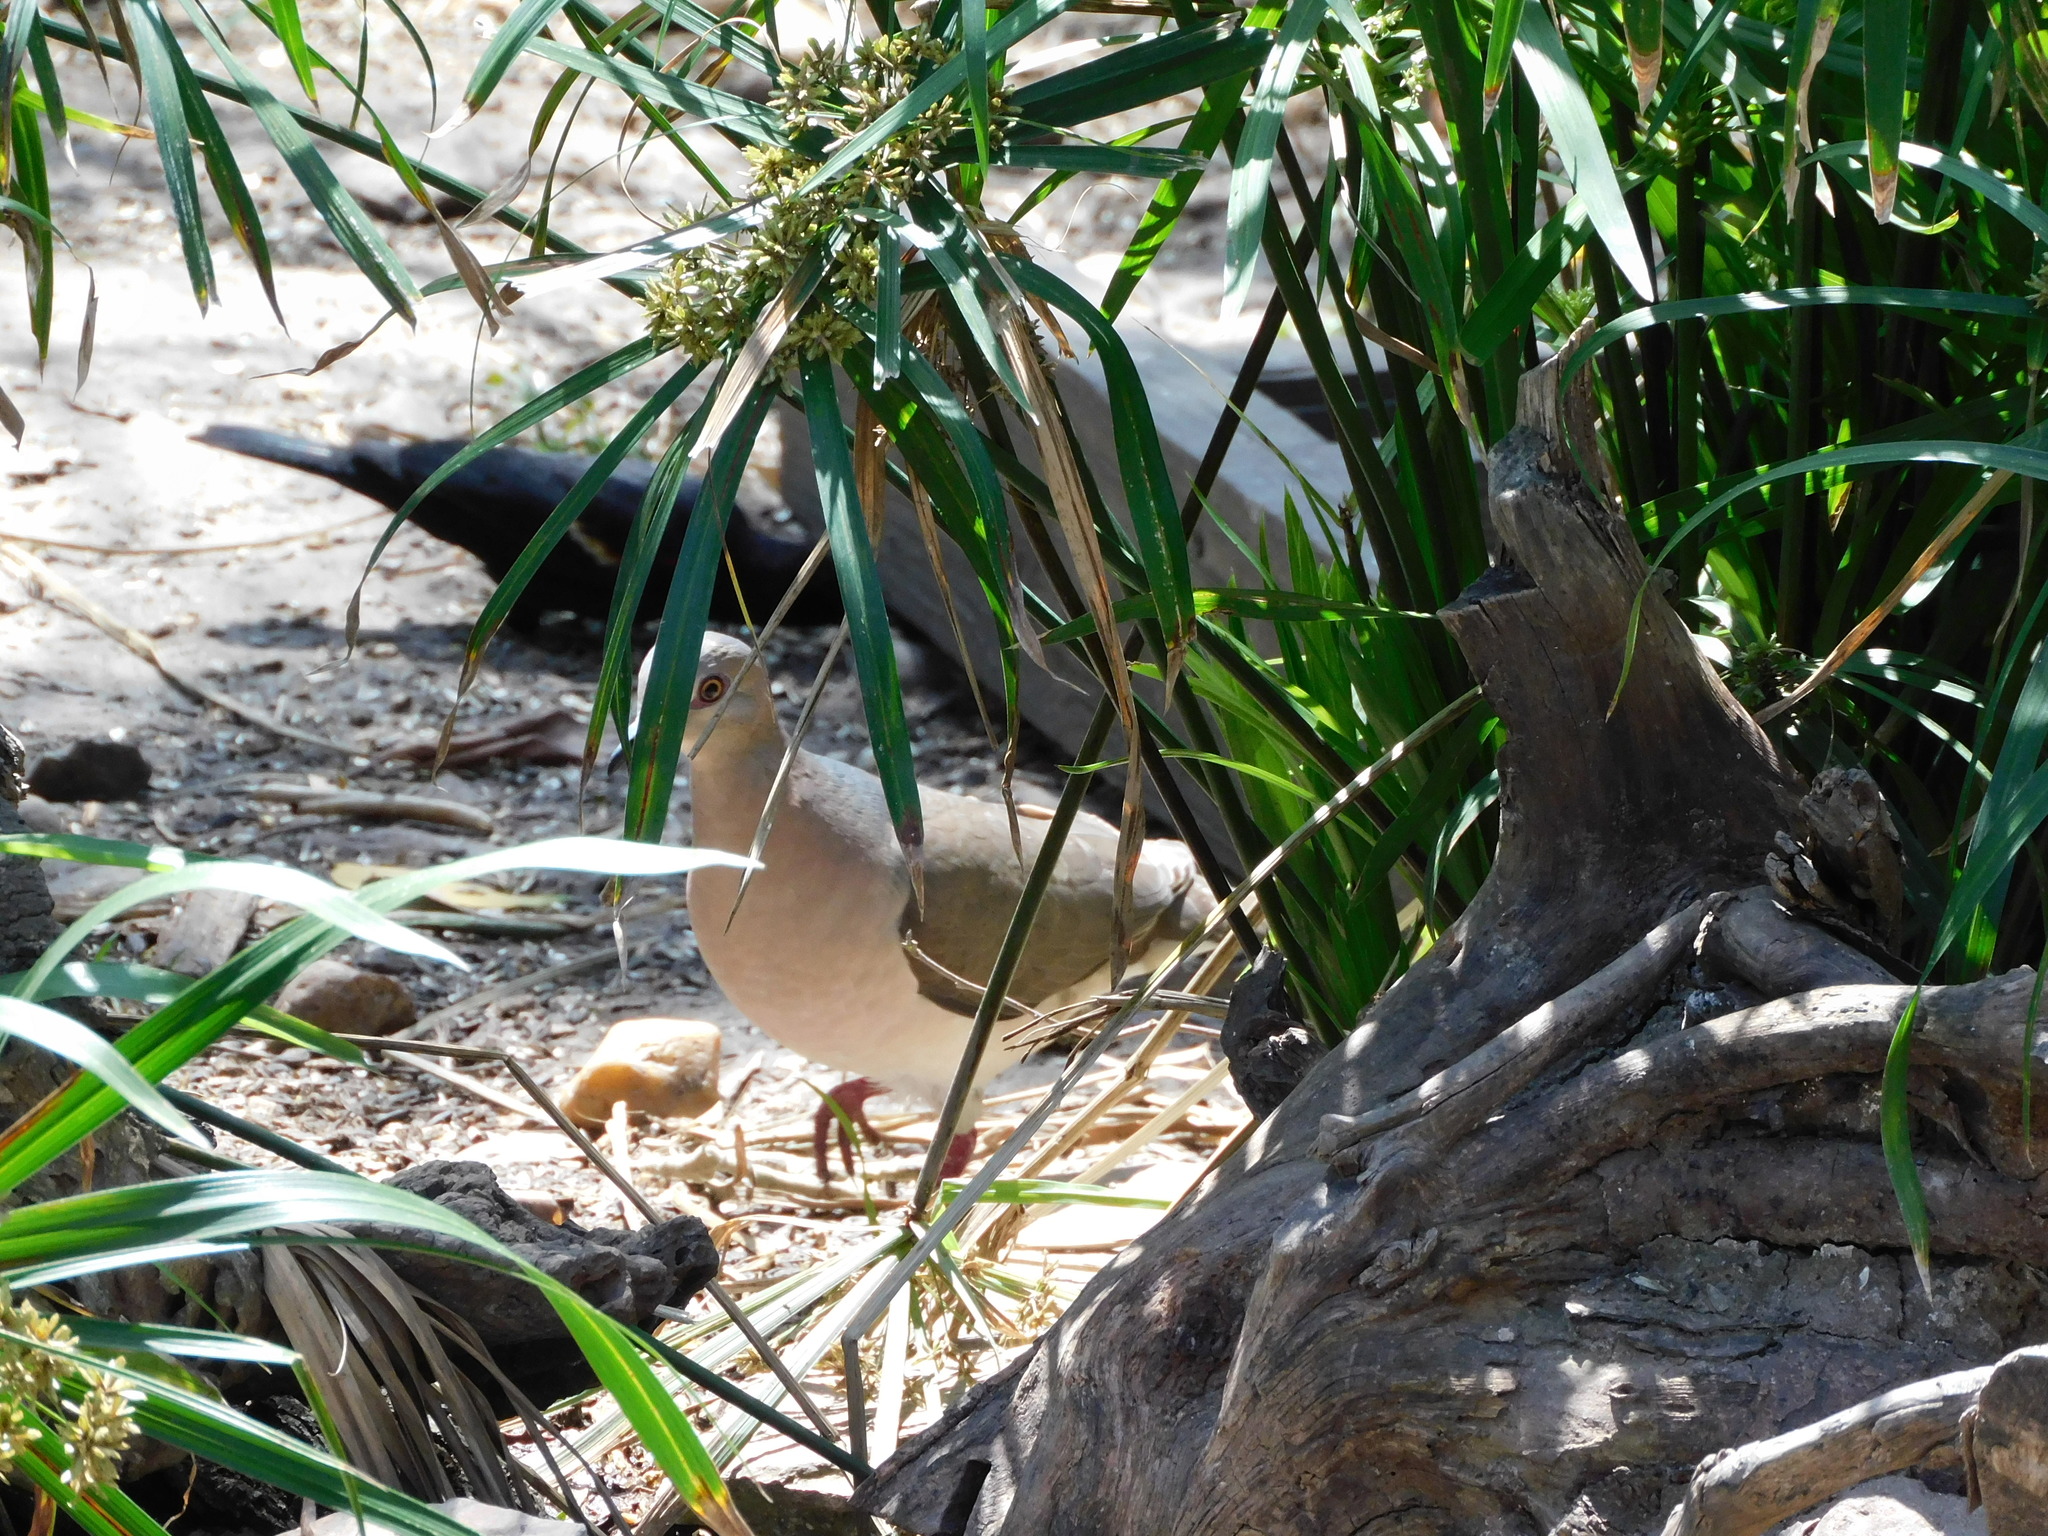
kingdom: Animalia
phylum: Chordata
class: Aves
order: Columbiformes
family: Columbidae
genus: Leptotila
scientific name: Leptotila verreauxi
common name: White-tipped dove
